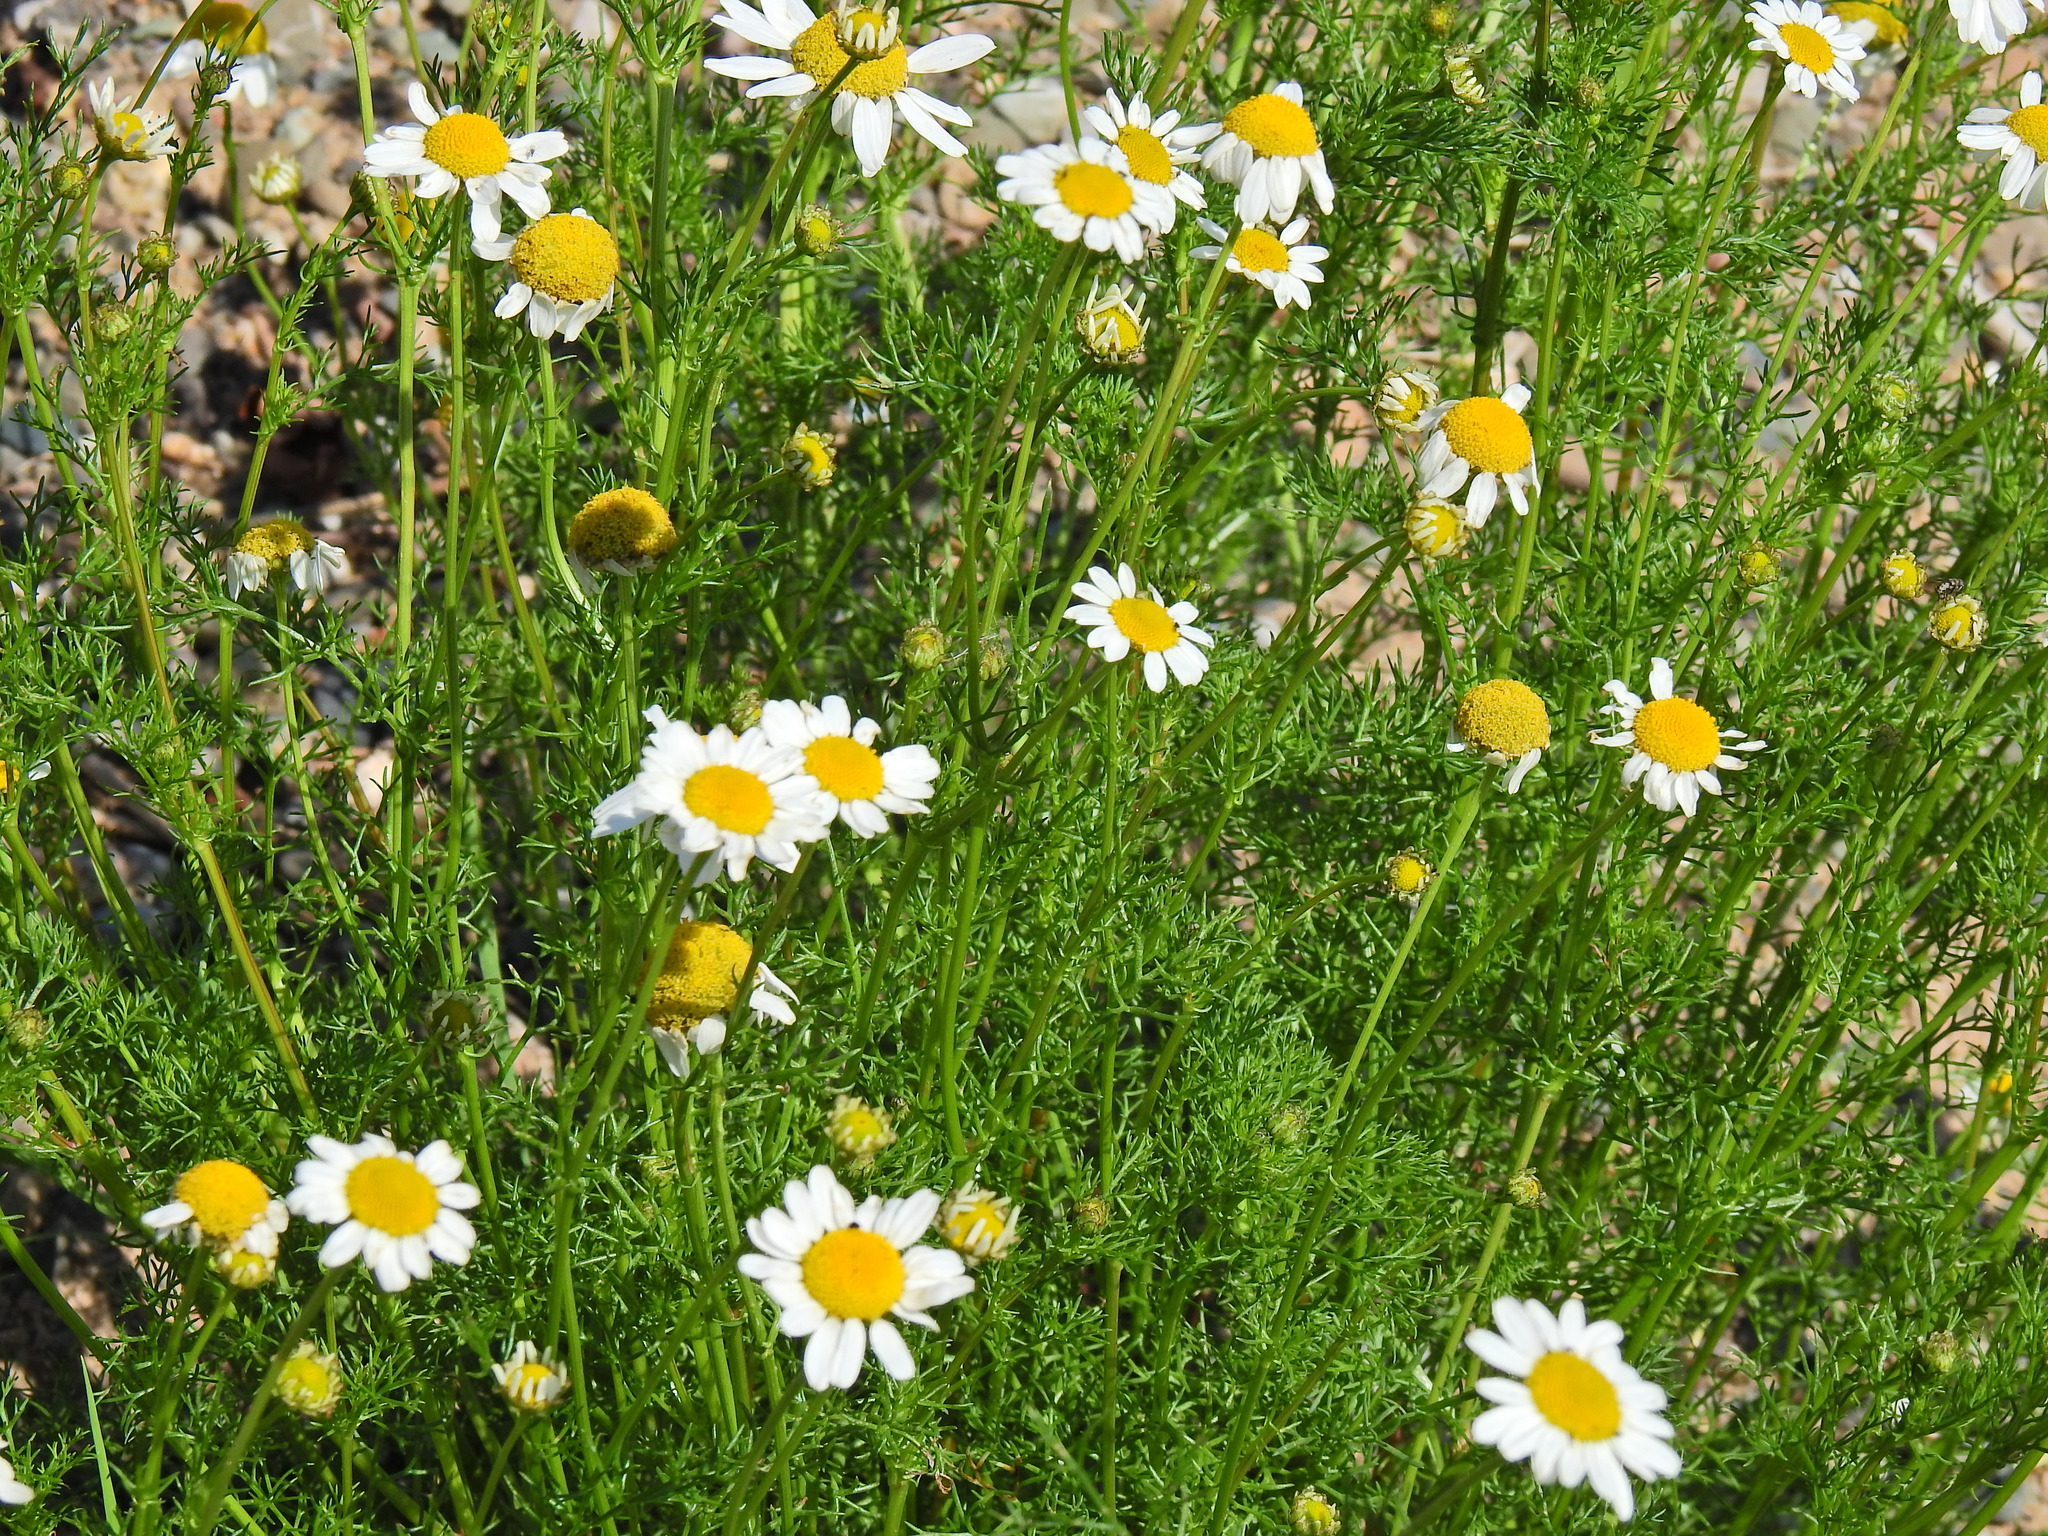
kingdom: Plantae
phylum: Tracheophyta
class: Magnoliopsida
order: Asterales
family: Asteraceae
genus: Tripleurospermum
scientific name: Tripleurospermum maritimum
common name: Sea mayweed
